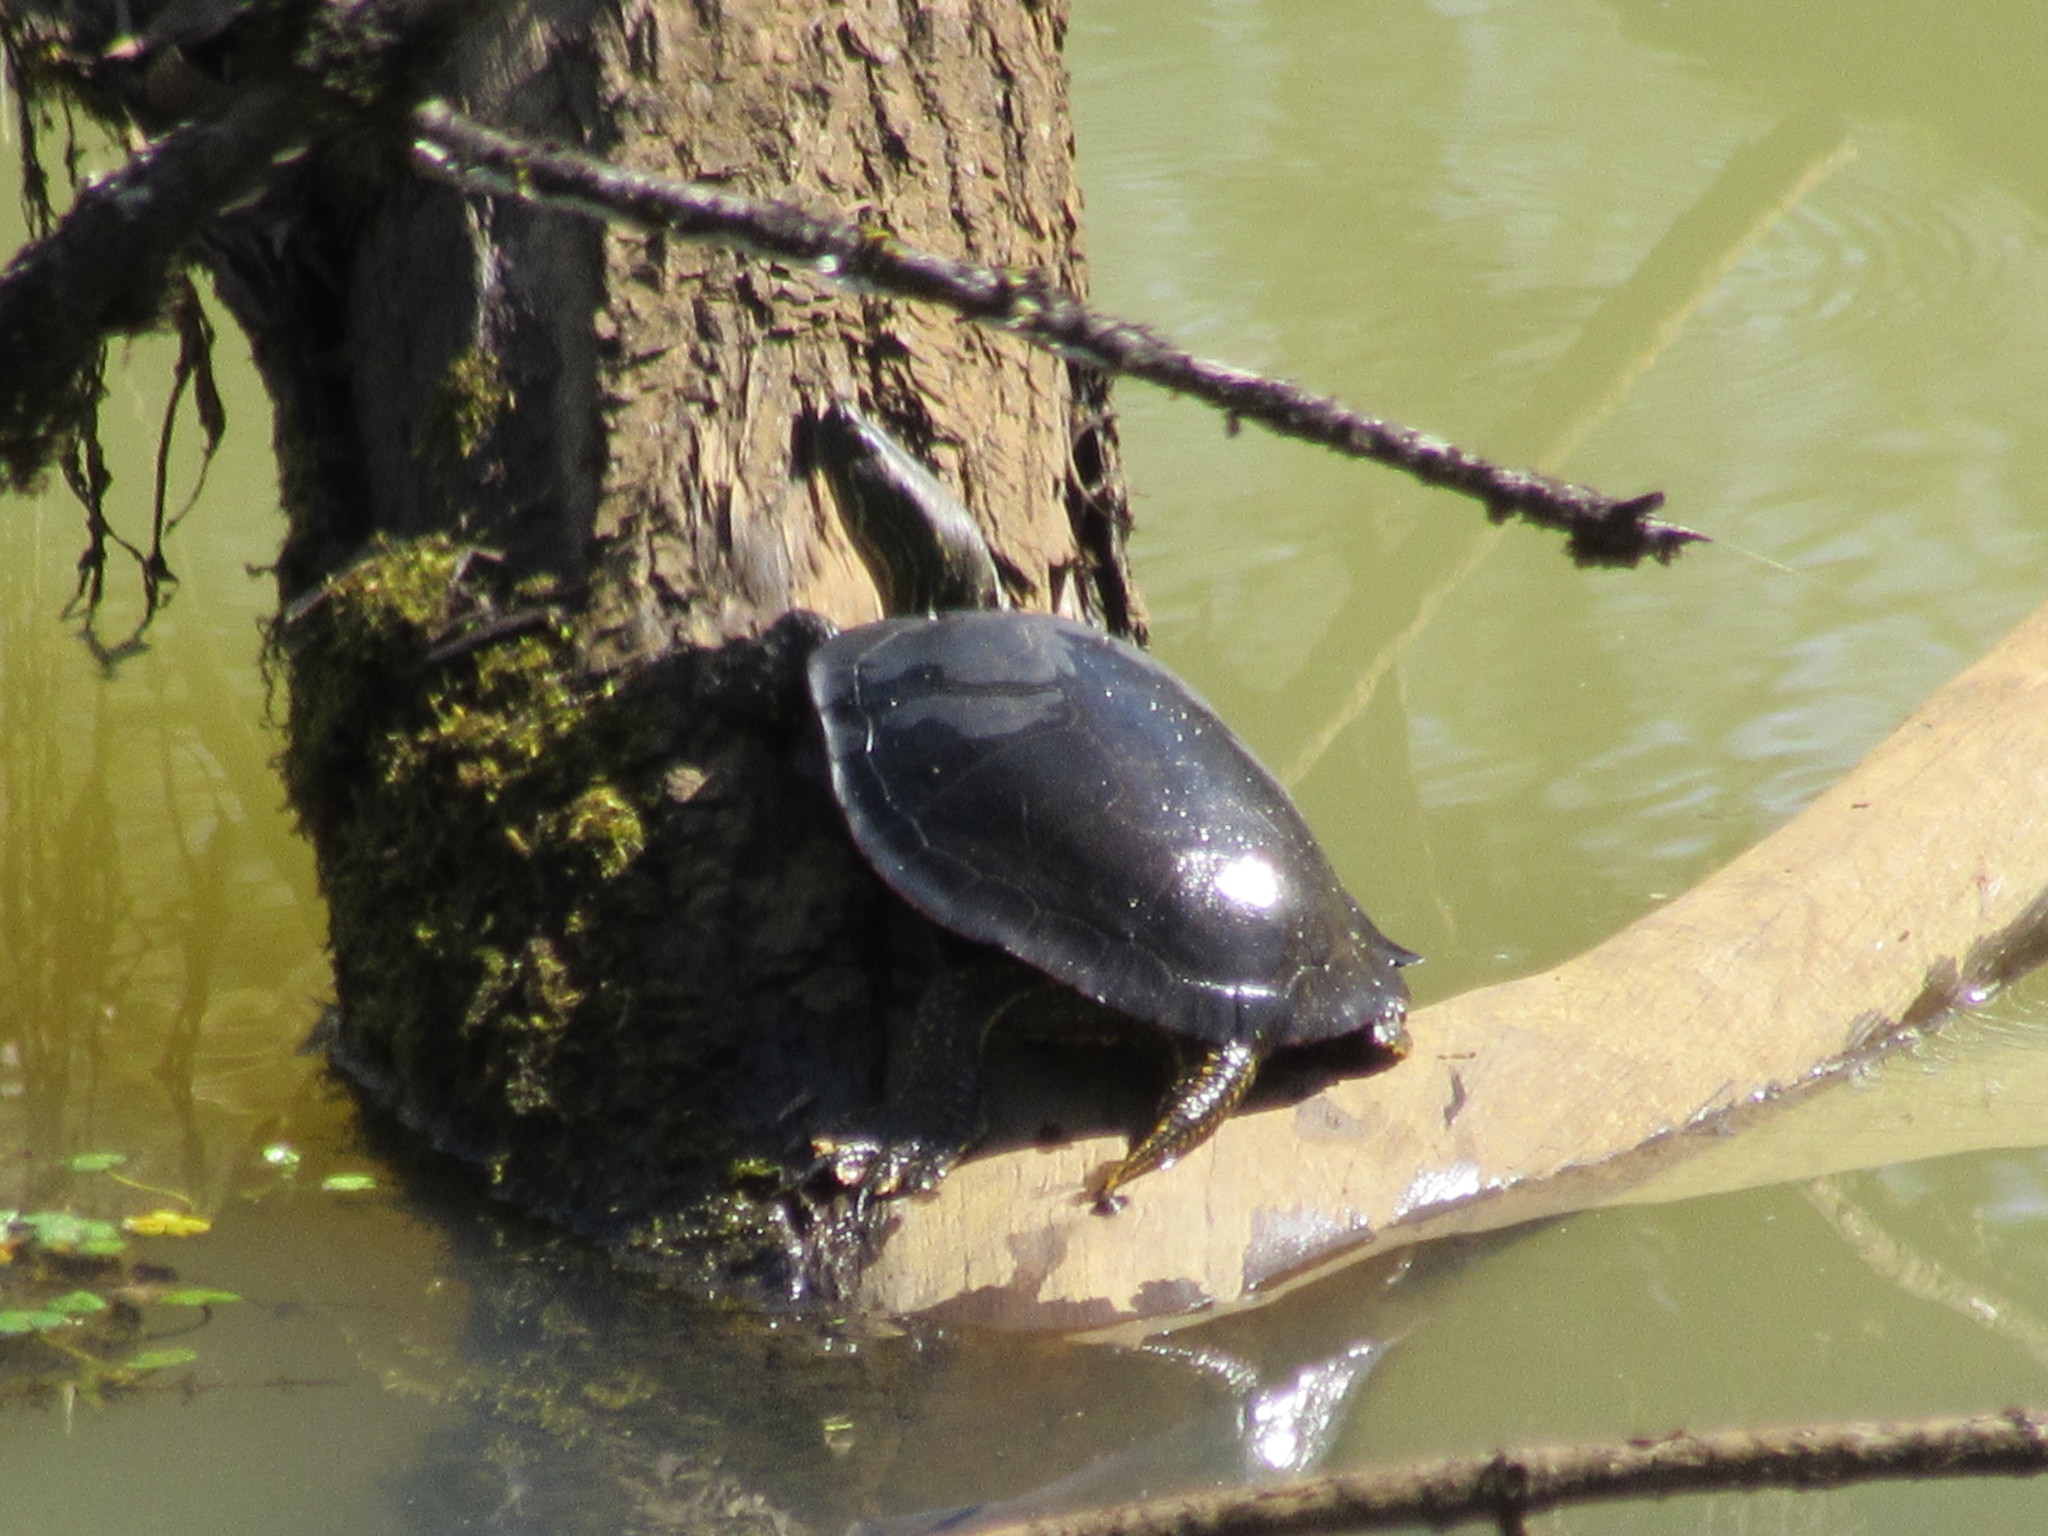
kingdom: Animalia
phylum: Chordata
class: Testudines
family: Emydidae
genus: Chrysemys
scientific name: Chrysemys picta
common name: Painted turtle
